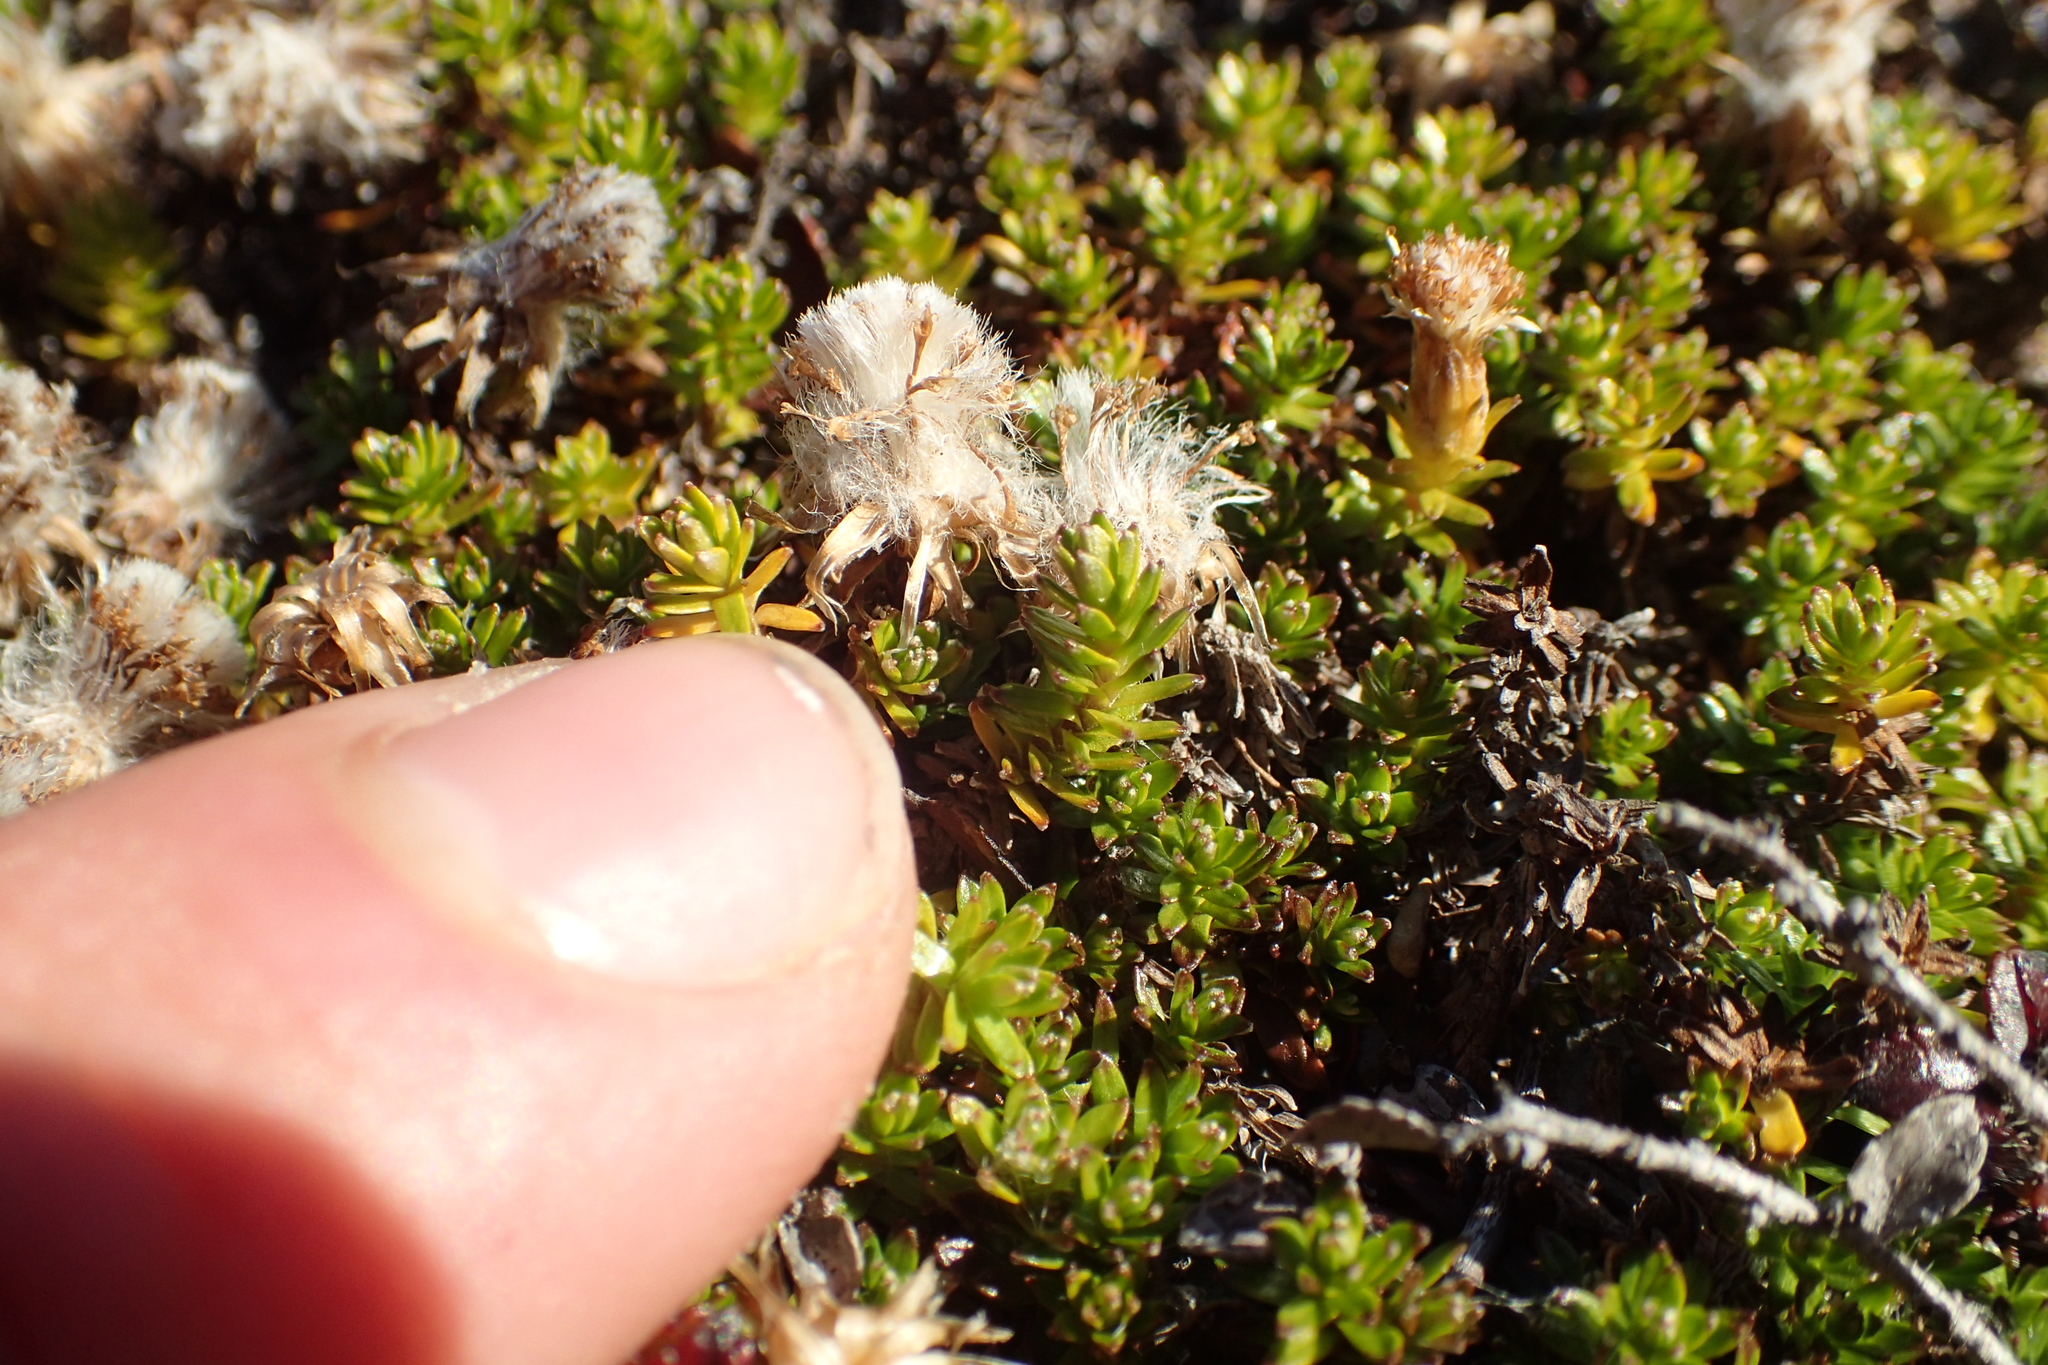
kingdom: Plantae
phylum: Tracheophyta
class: Magnoliopsida
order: Asterales
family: Asteraceae
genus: Raoulia
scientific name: Raoulia glabra
